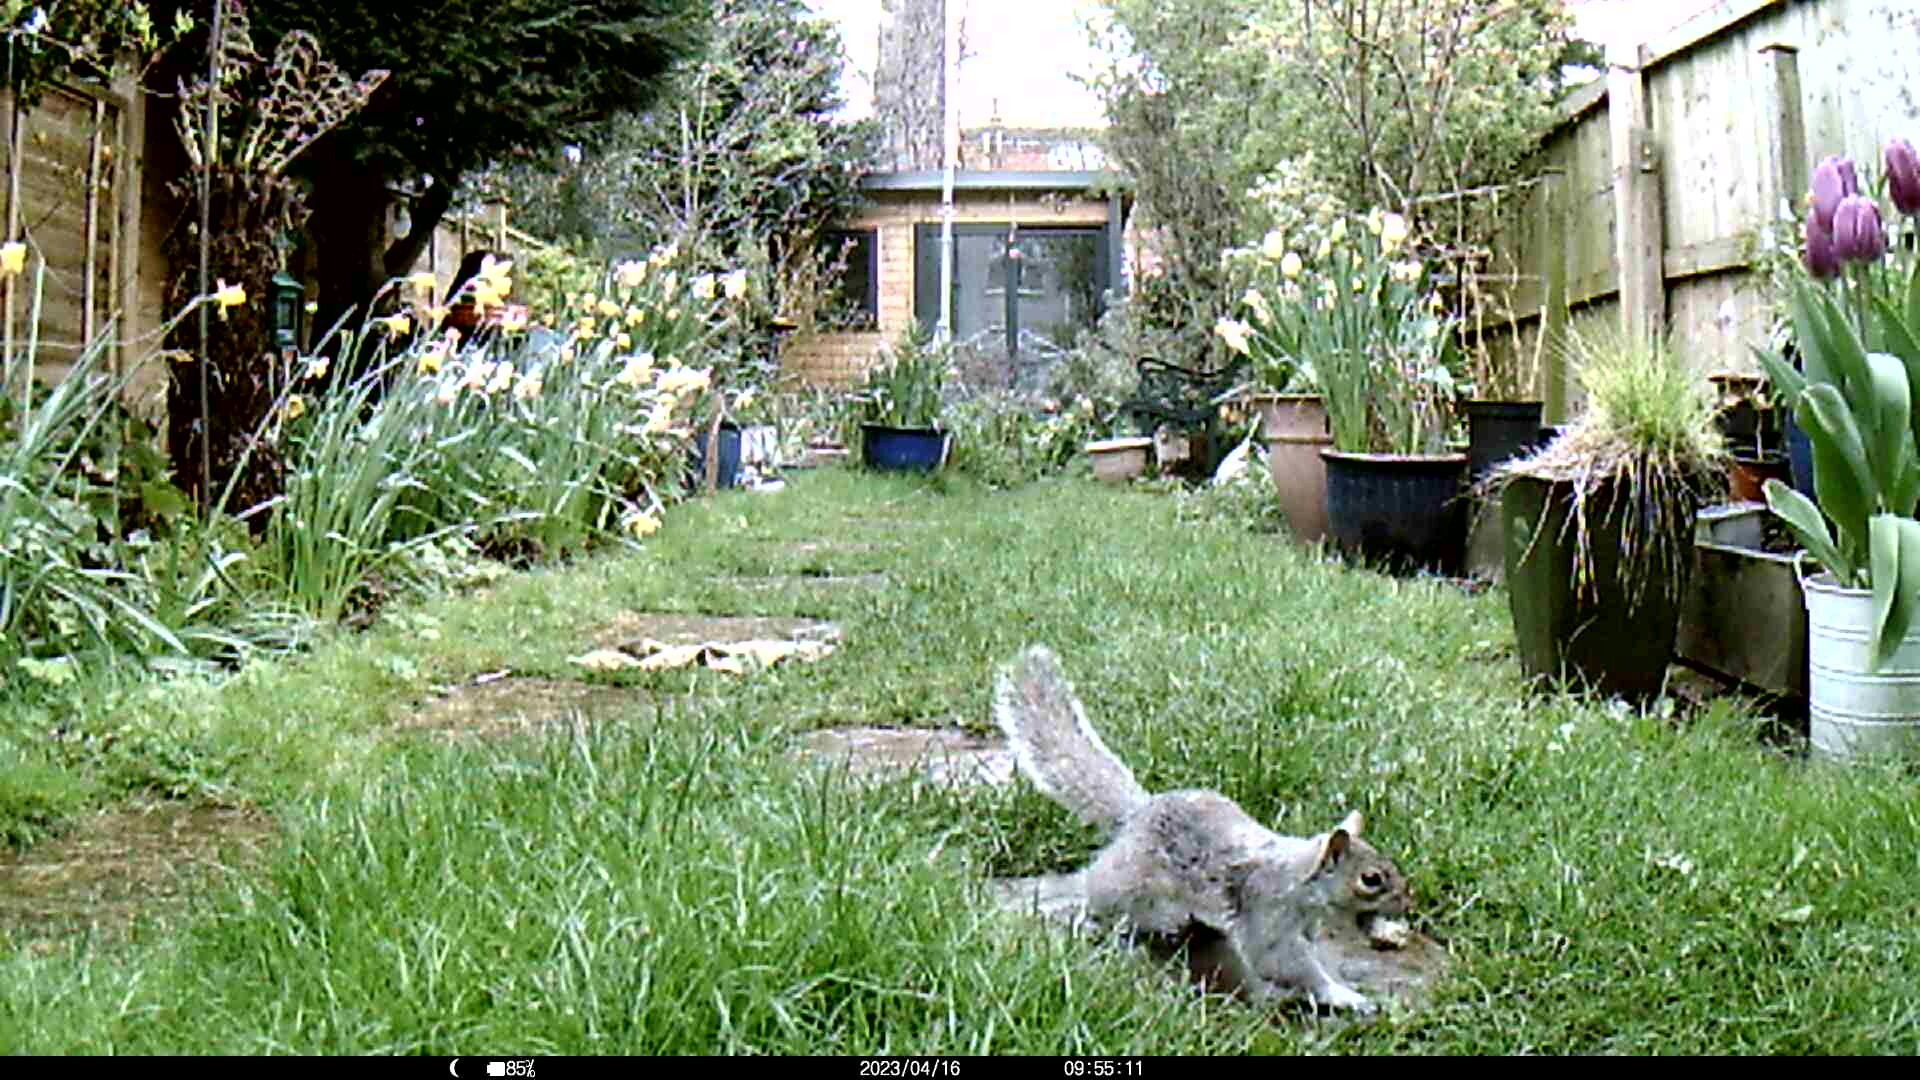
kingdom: Animalia
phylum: Chordata
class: Mammalia
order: Rodentia
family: Sciuridae
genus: Sciurus
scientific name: Sciurus carolinensis
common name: Eastern gray squirrel
